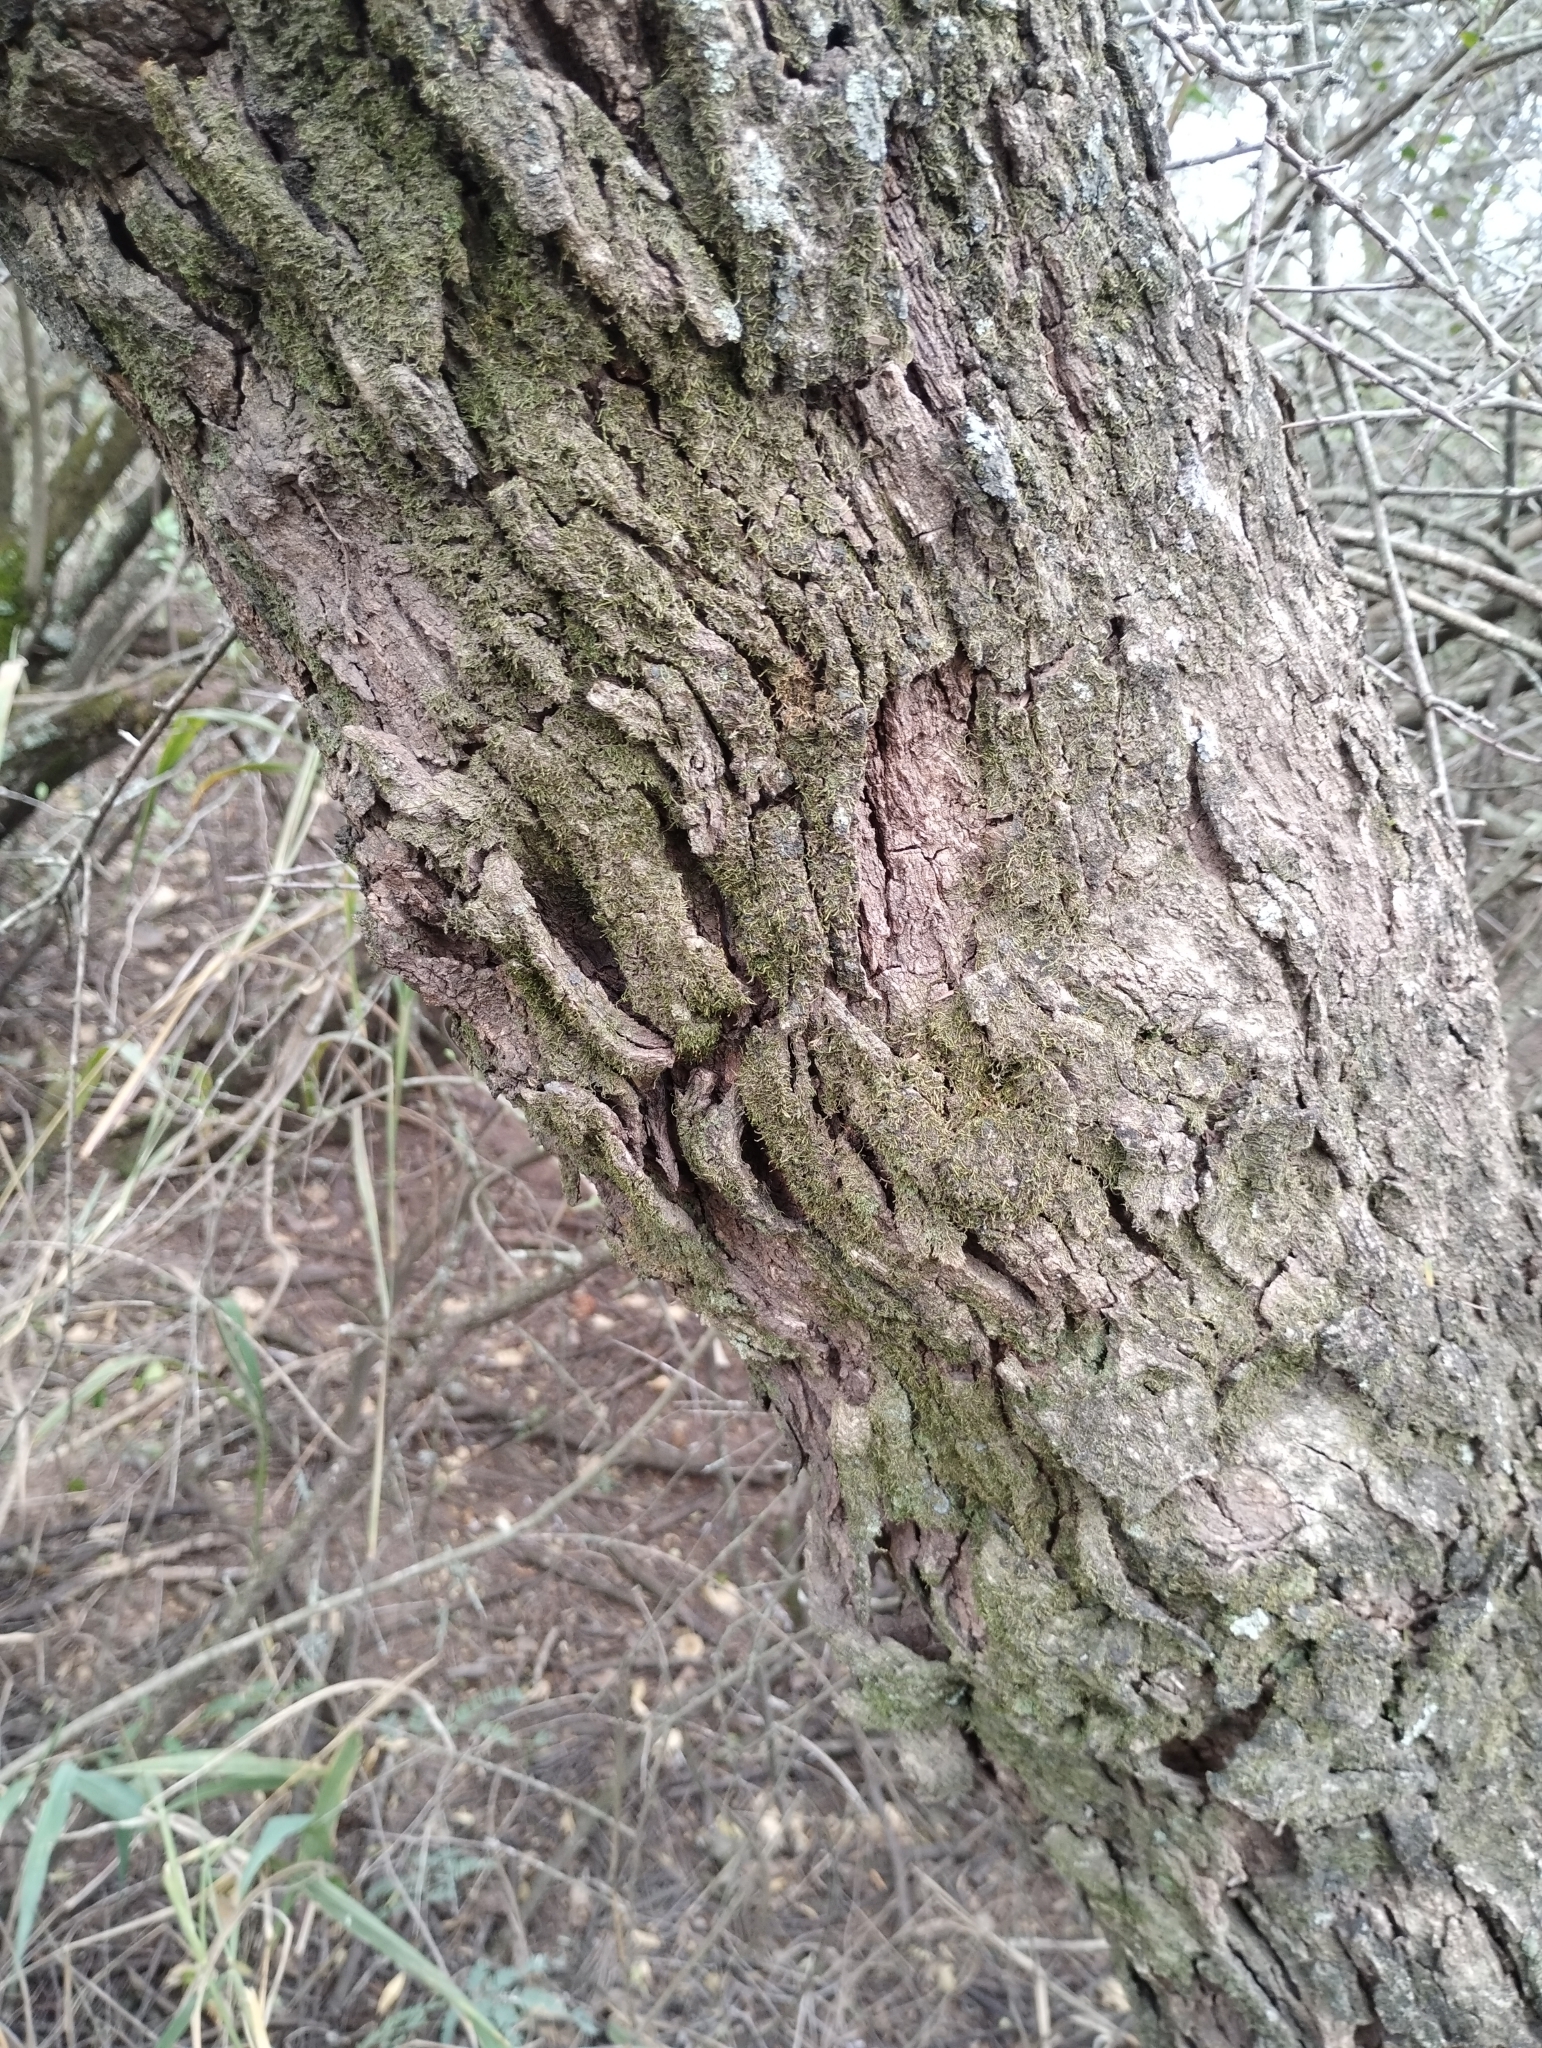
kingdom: Plantae
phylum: Tracheophyta
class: Magnoliopsida
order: Fabales
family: Fabaceae
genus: Senegalia
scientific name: Senegalia praecox
